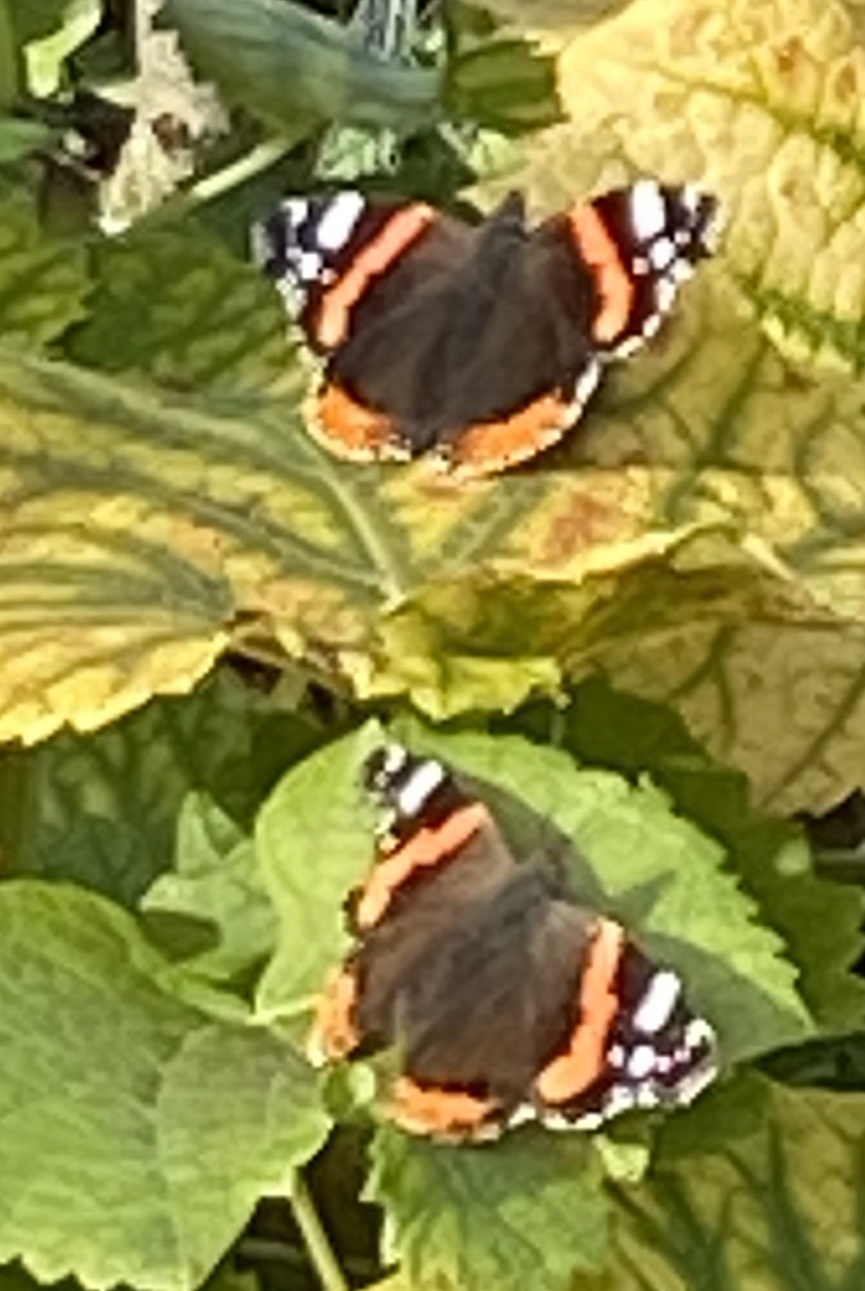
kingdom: Animalia
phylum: Arthropoda
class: Insecta
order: Lepidoptera
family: Nymphalidae
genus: Vanessa
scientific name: Vanessa atalanta
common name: Red admiral
